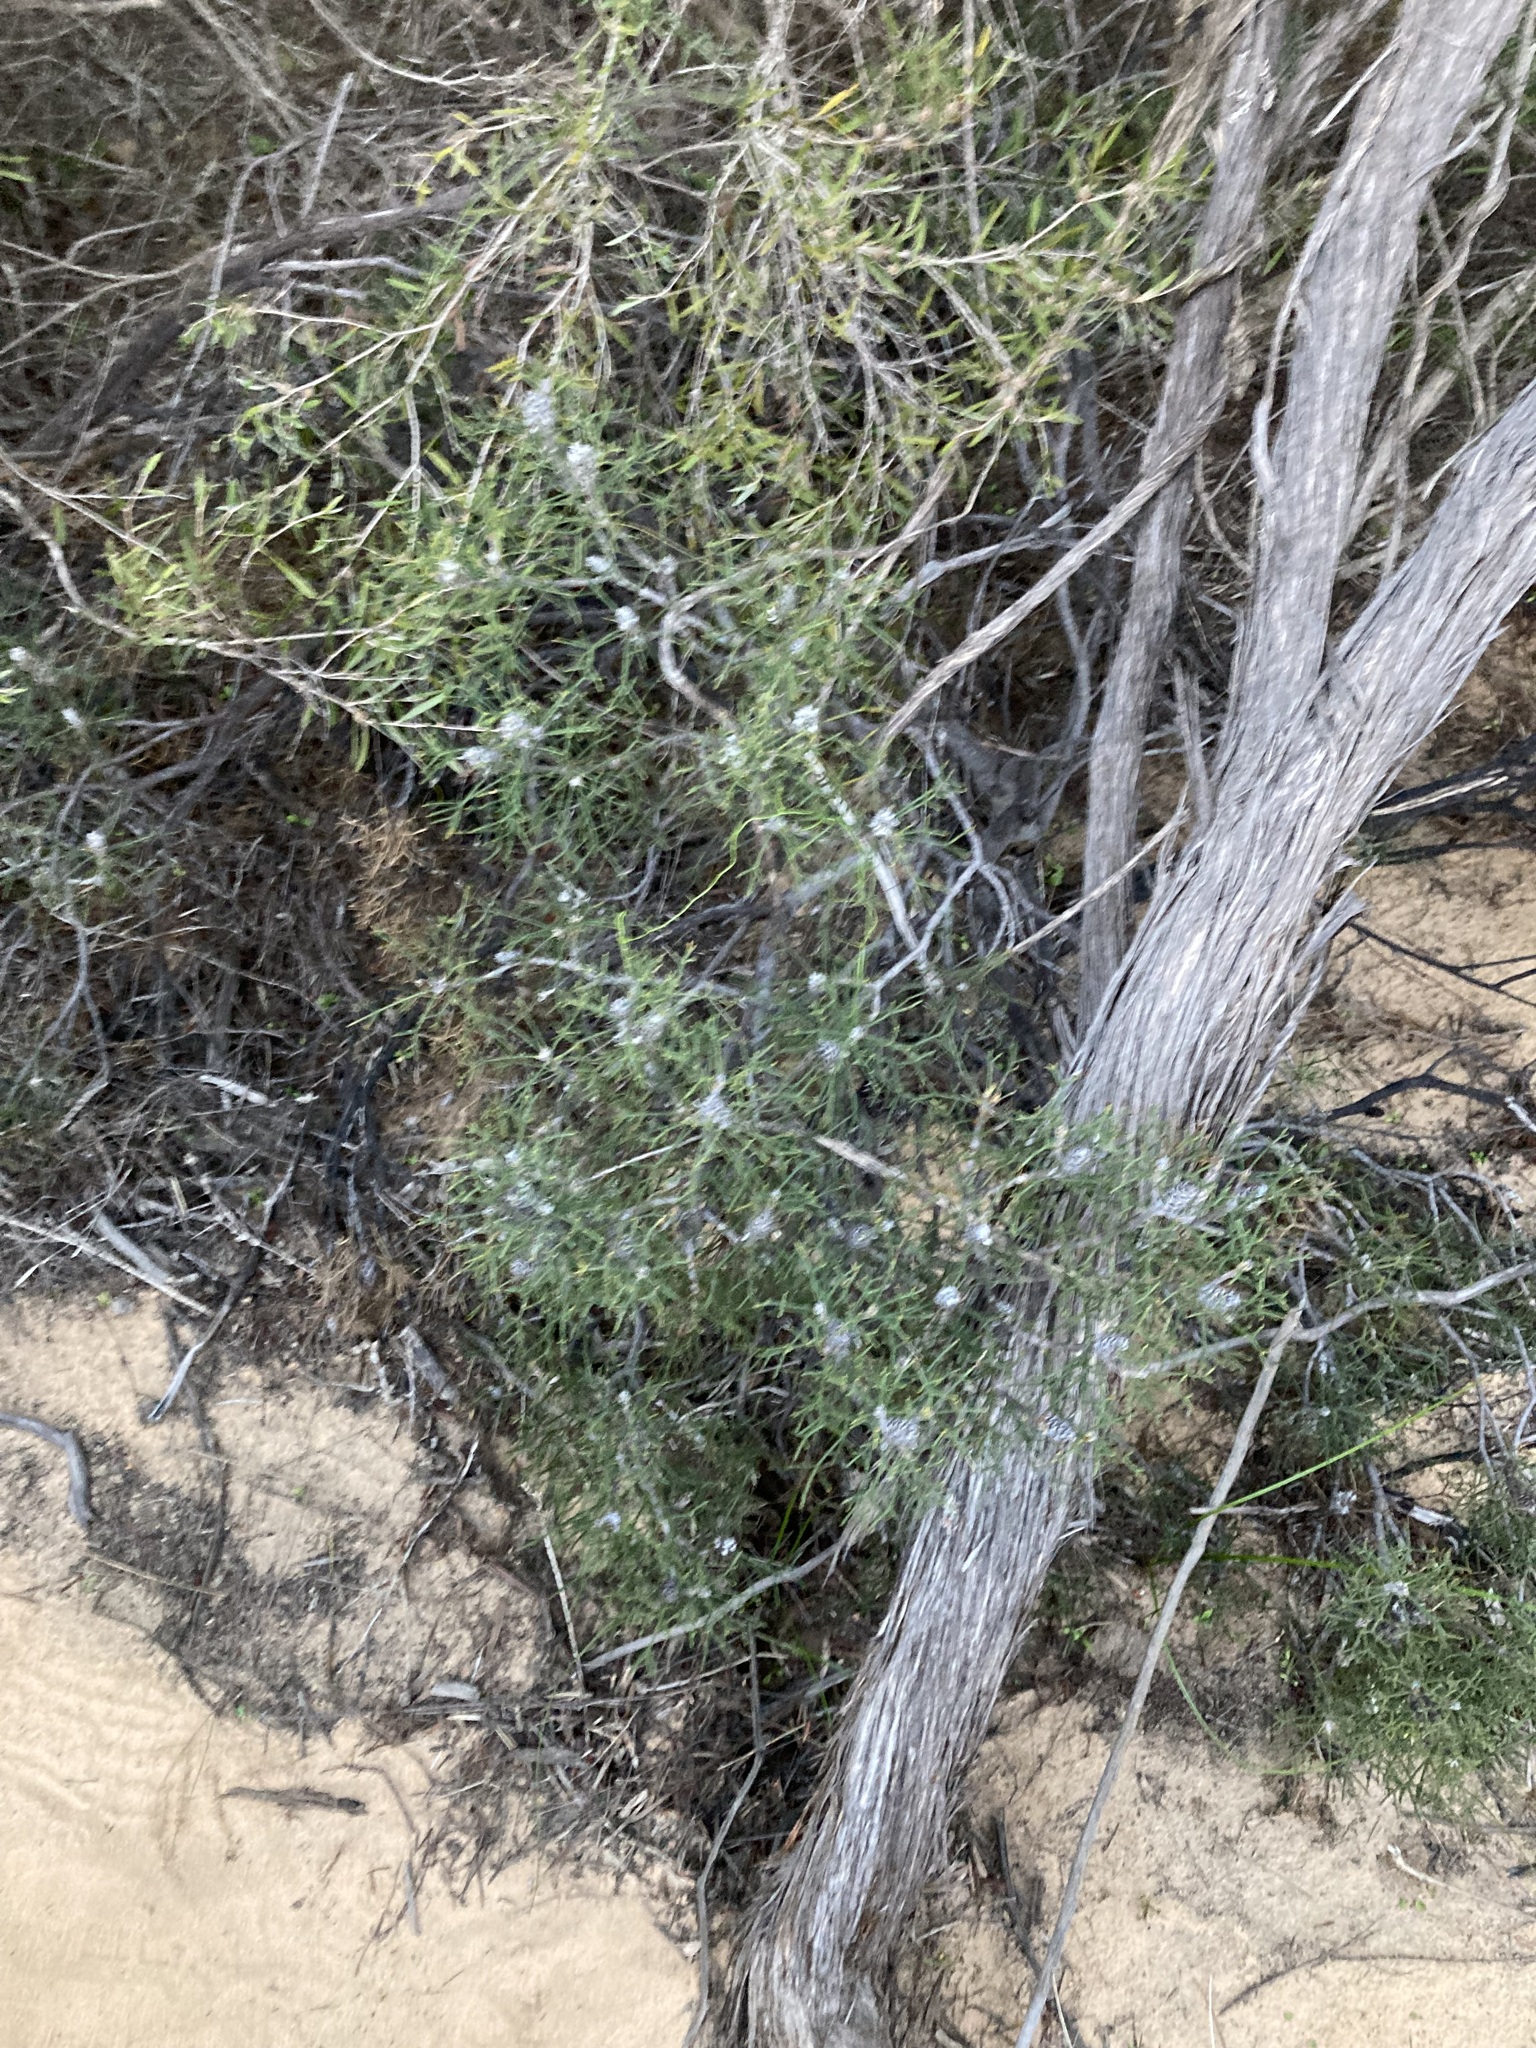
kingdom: Plantae
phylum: Tracheophyta
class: Magnoliopsida
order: Proteales
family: Proteaceae
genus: Petrophile
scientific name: Petrophile conifera
